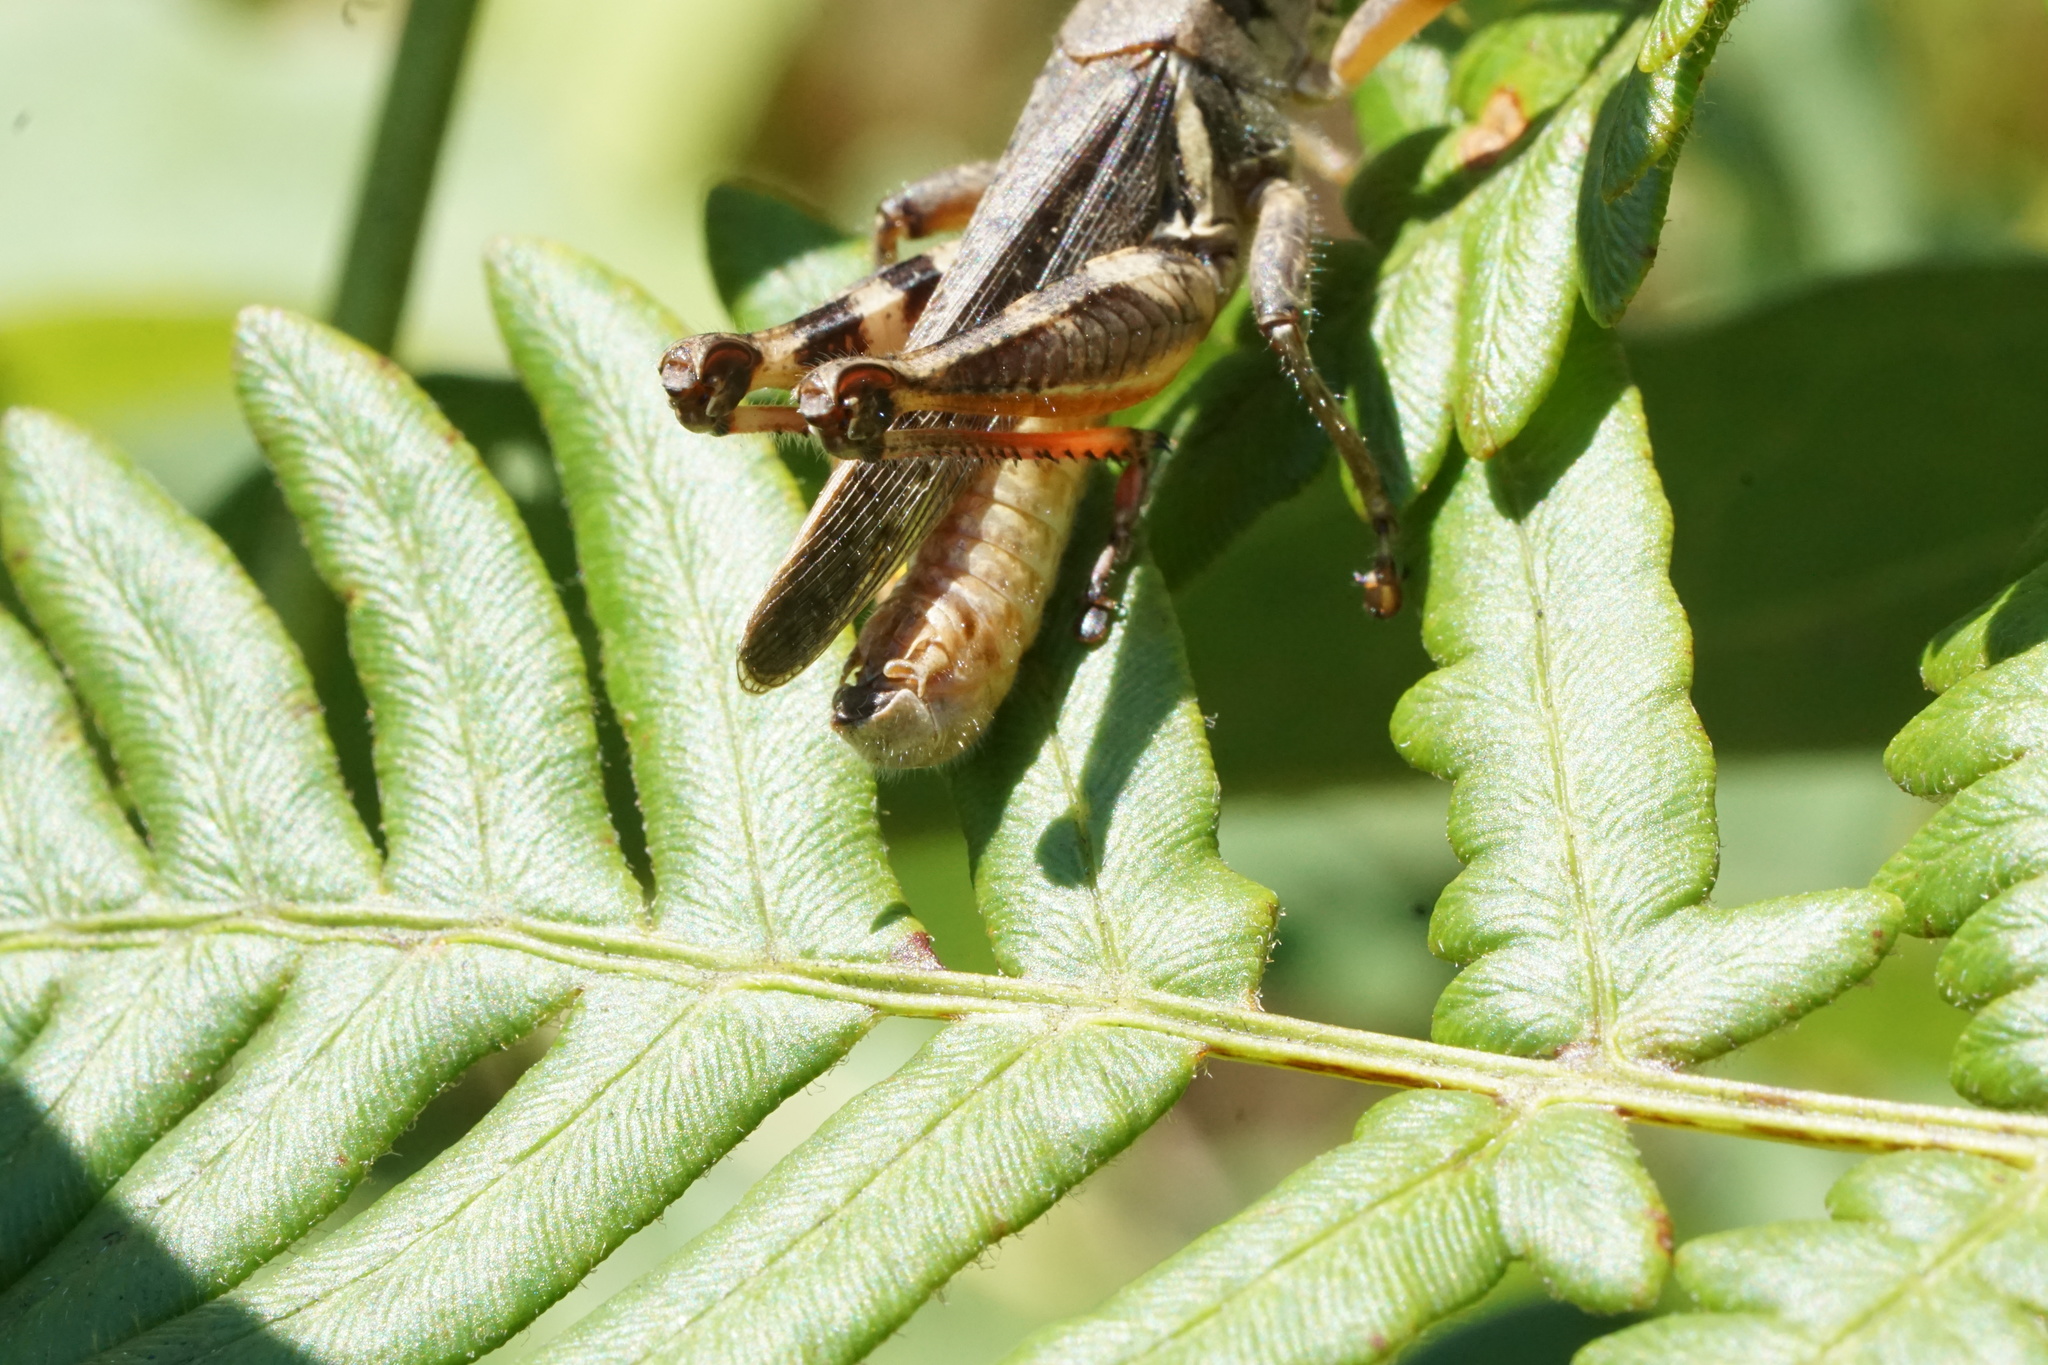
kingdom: Animalia
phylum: Arthropoda
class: Insecta
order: Orthoptera
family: Acrididae
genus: Melanoplus
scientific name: Melanoplus keeleri
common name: Keeler grasshopper
